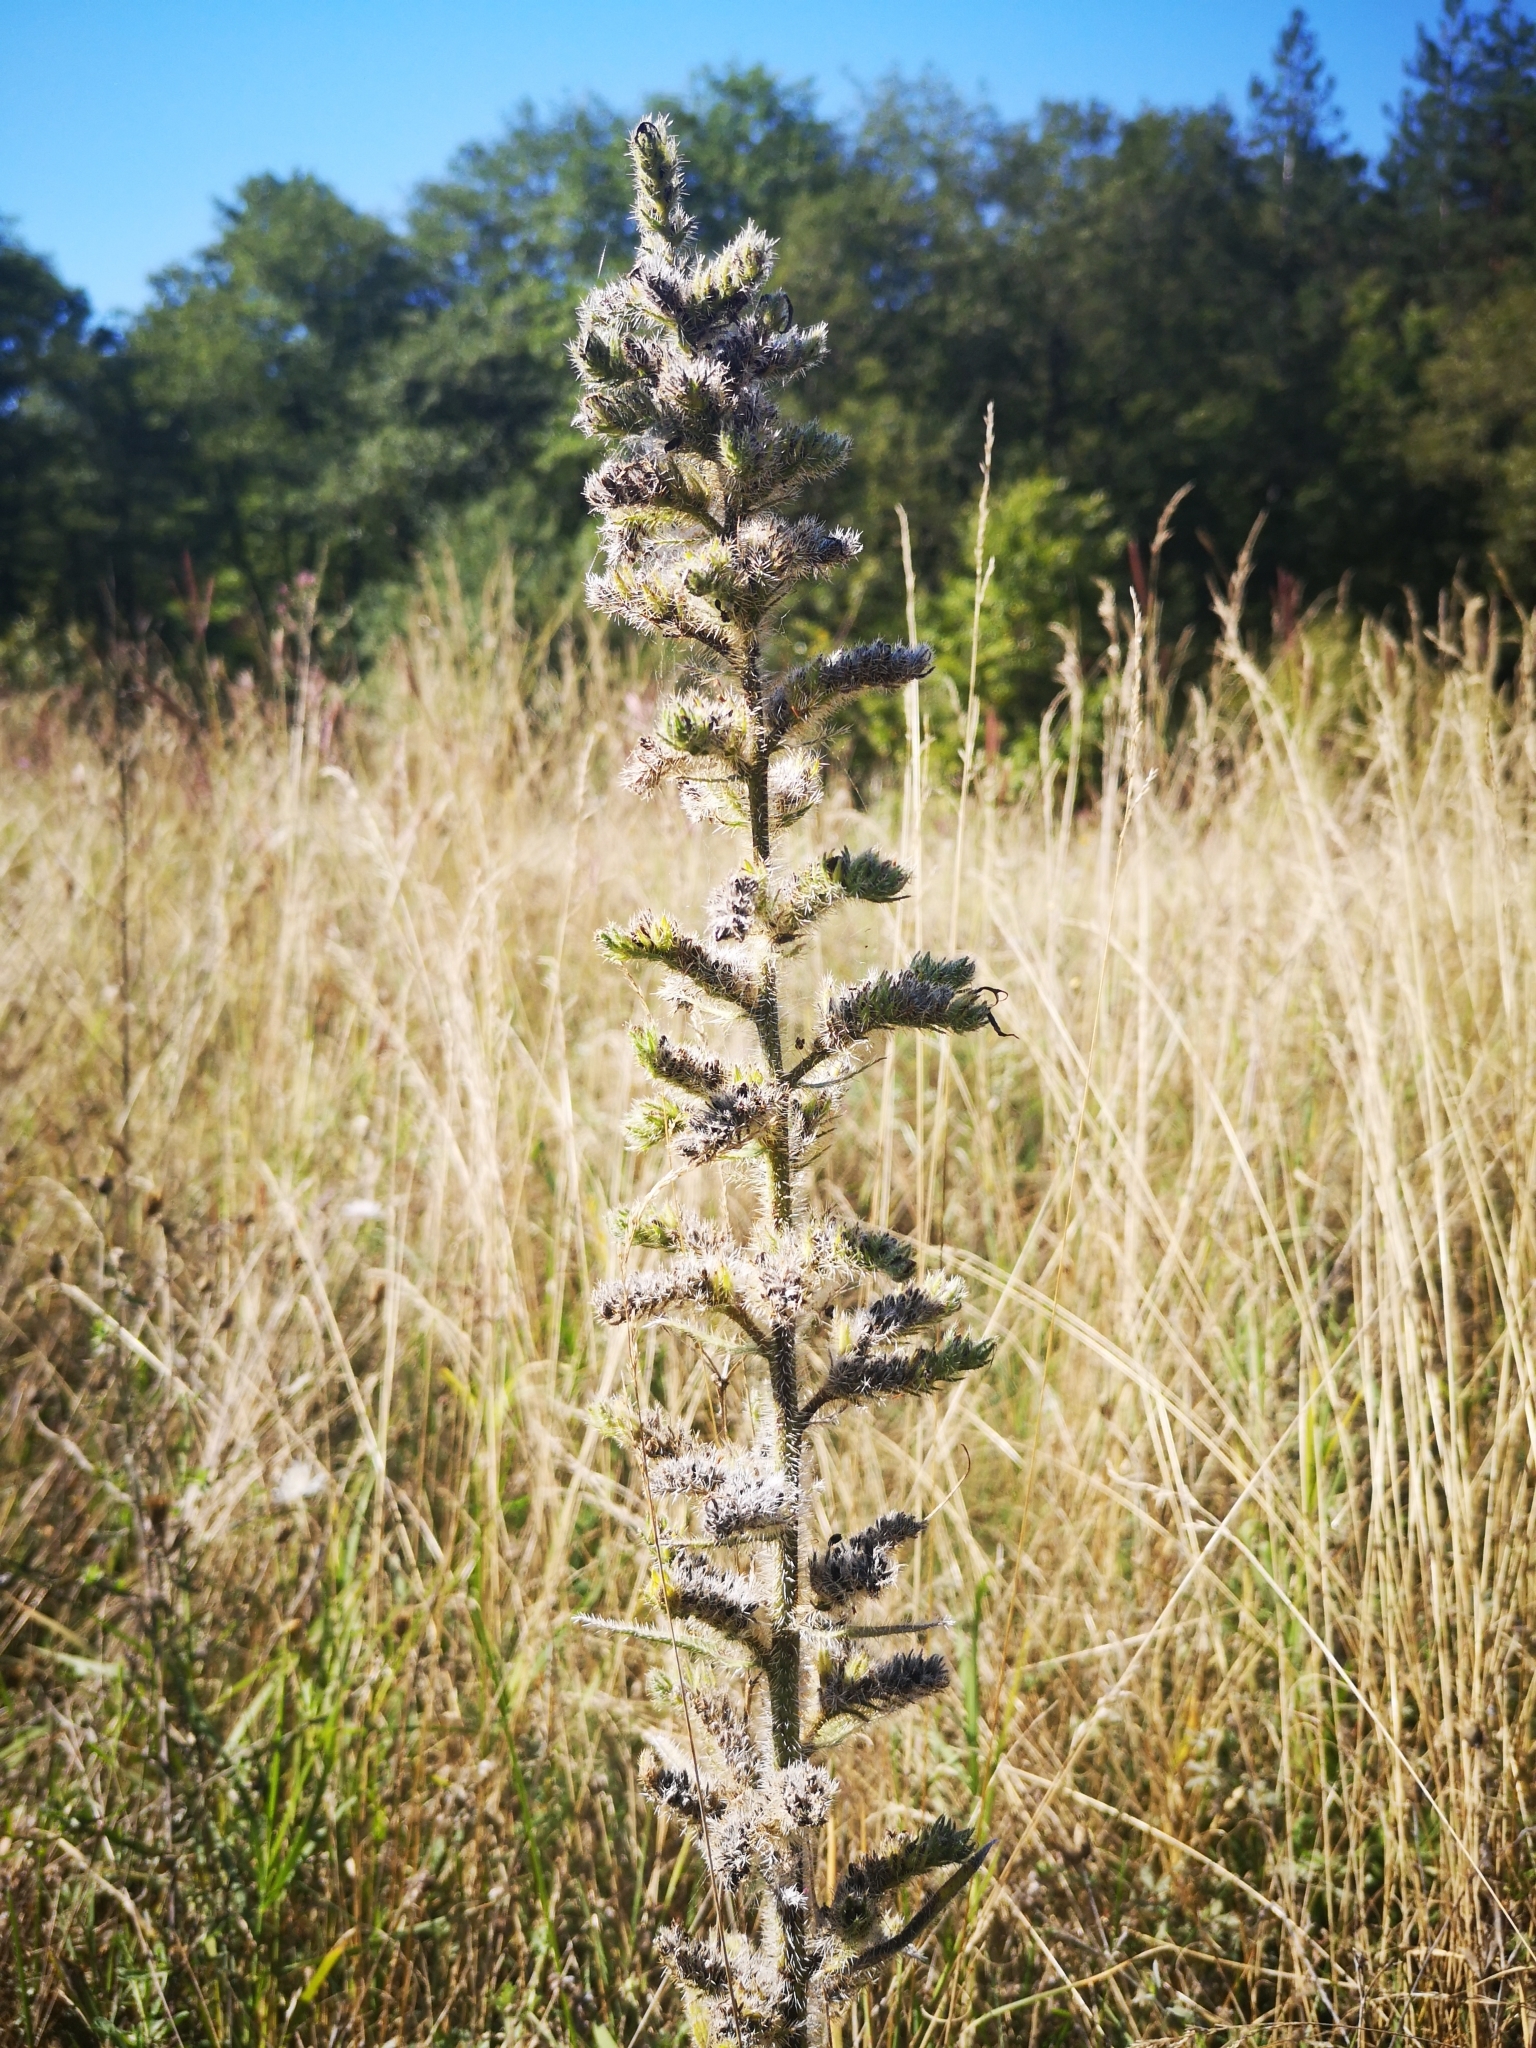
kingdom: Plantae
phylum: Tracheophyta
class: Magnoliopsida
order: Boraginales
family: Boraginaceae
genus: Echium
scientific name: Echium vulgare
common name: Common viper's bugloss
